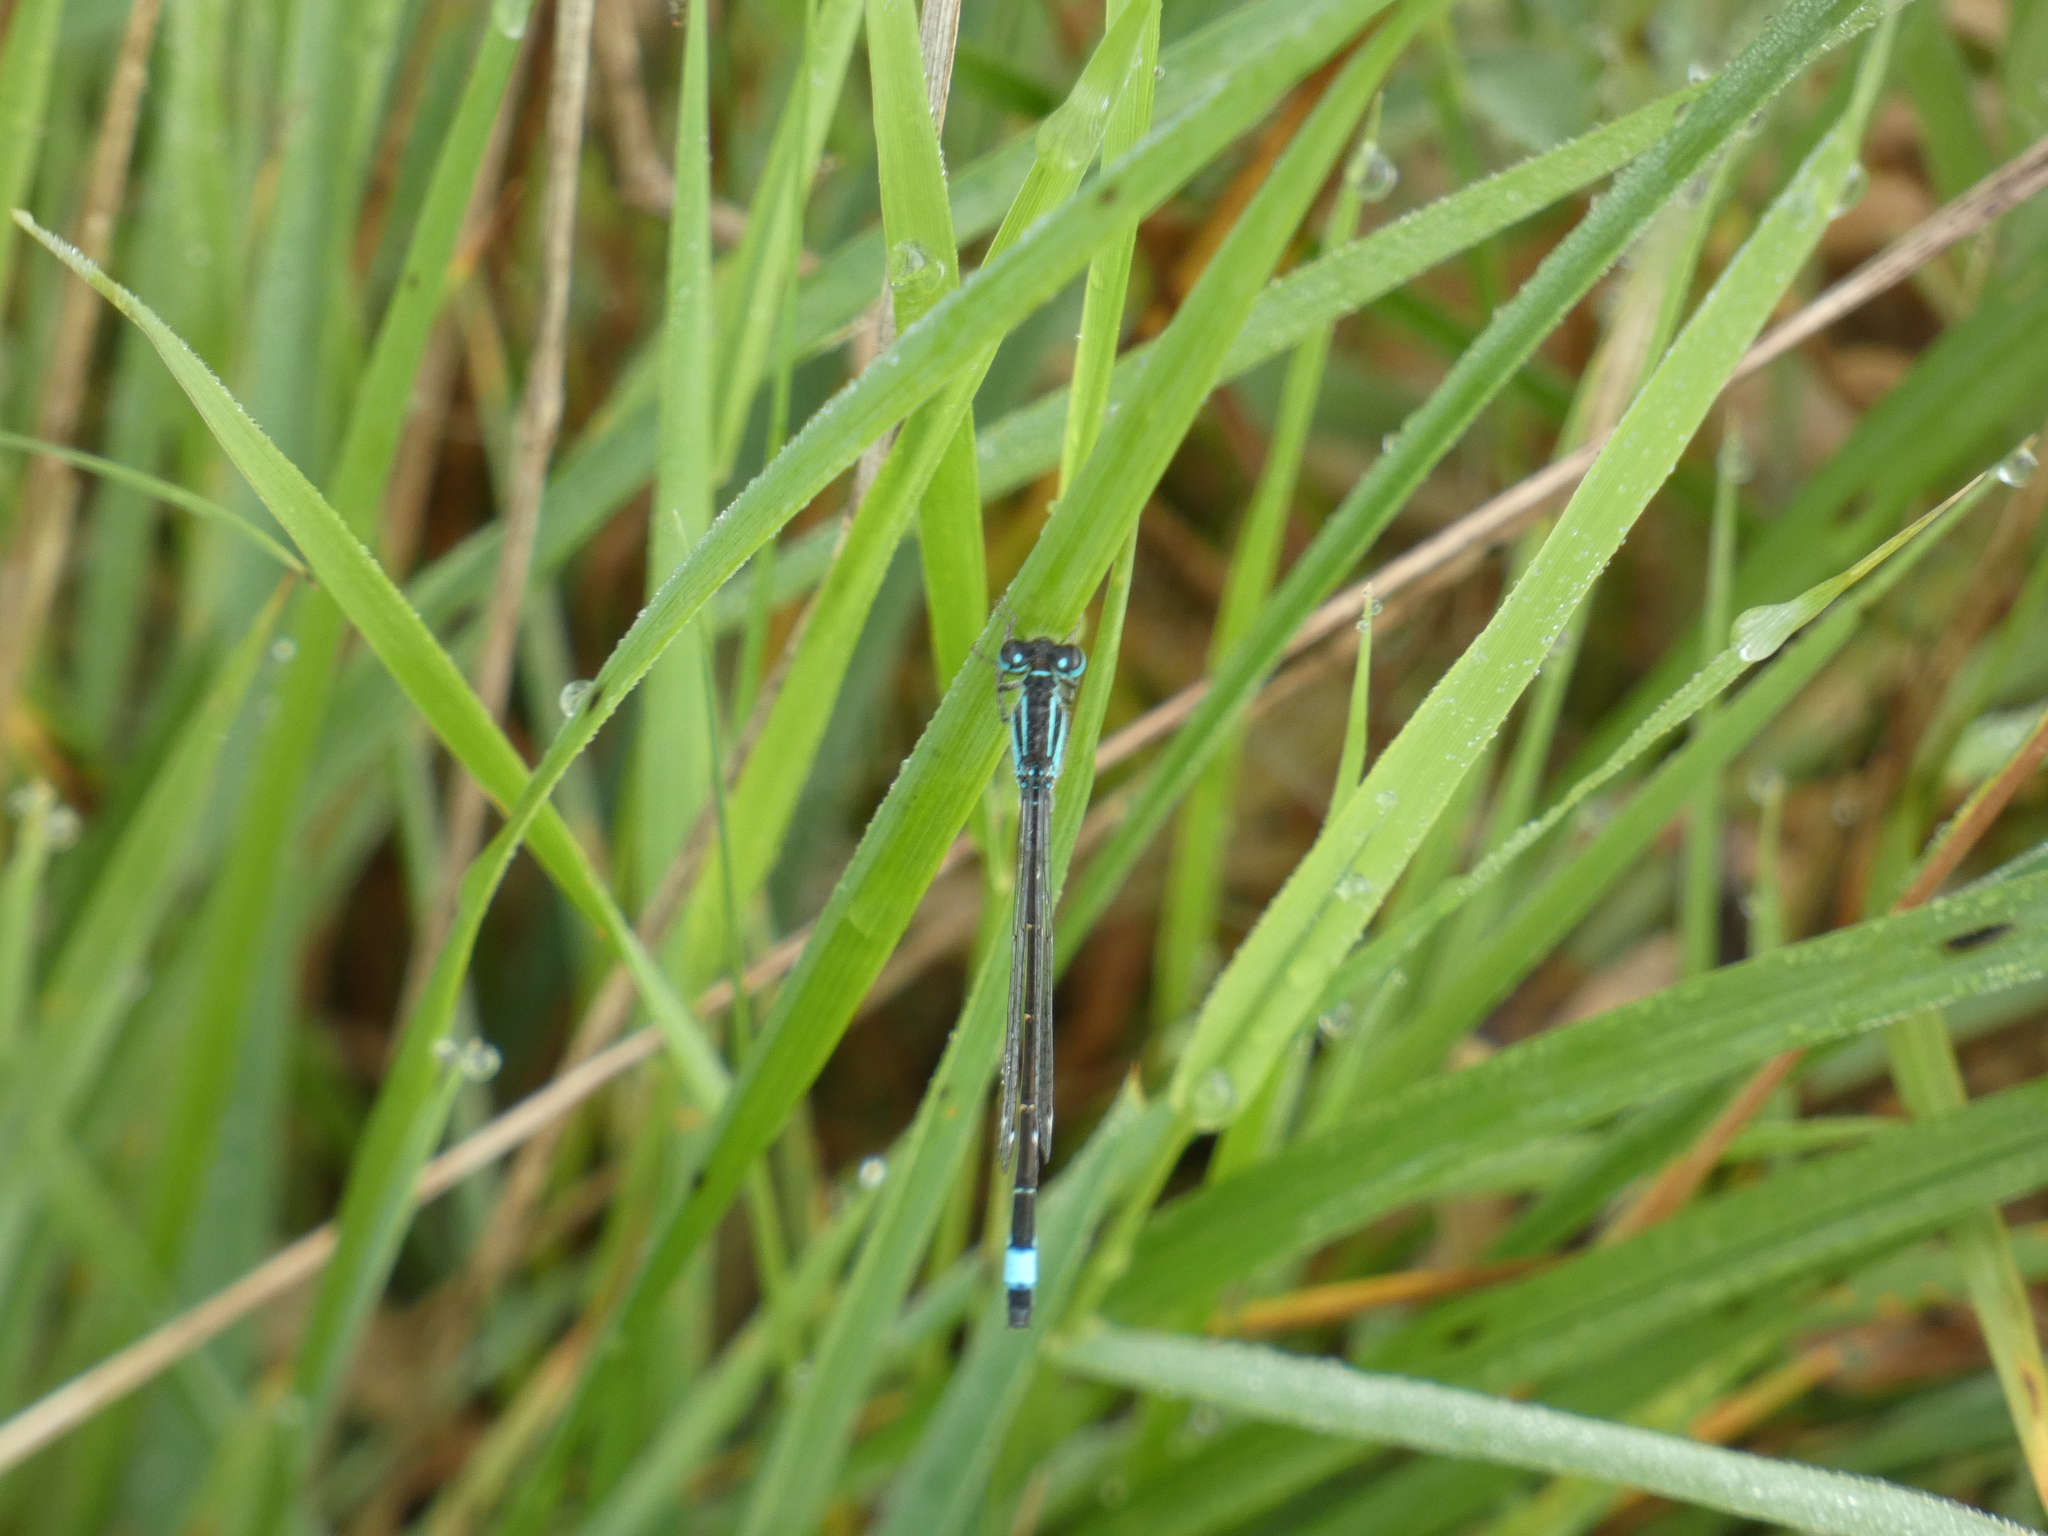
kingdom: Animalia
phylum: Arthropoda
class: Insecta
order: Odonata
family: Coenagrionidae
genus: Ischnura
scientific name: Ischnura elegans
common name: Blue-tailed damselfly
